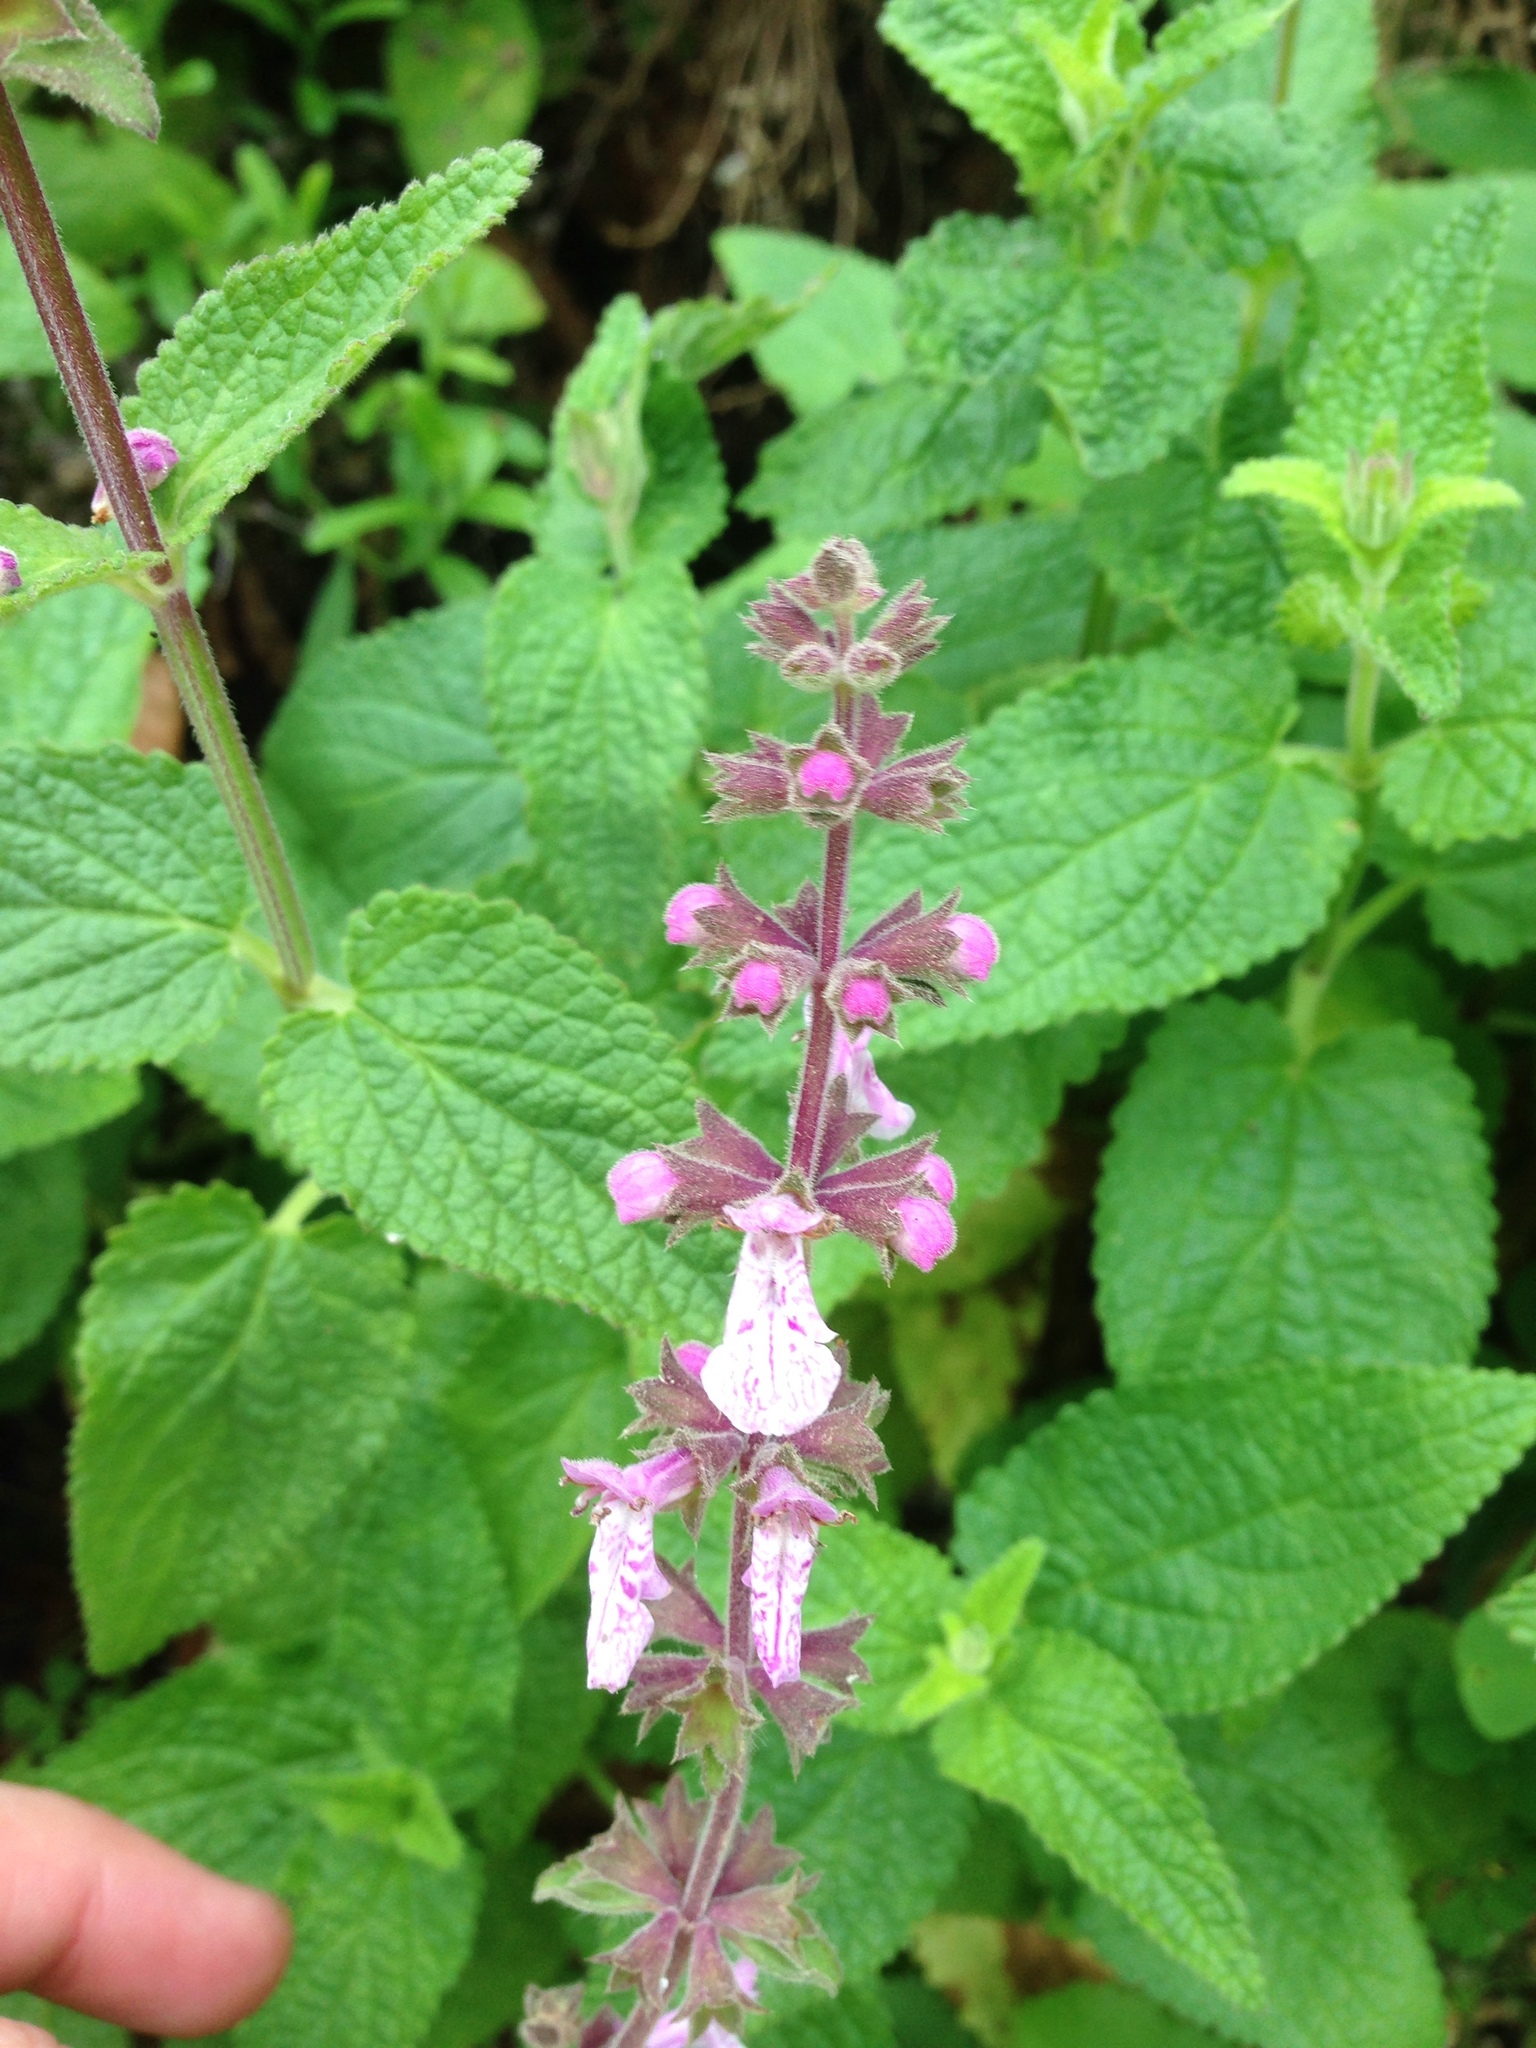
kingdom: Plantae
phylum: Tracheophyta
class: Magnoliopsida
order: Lamiales
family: Lamiaceae
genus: Stachys
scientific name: Stachys bullata
